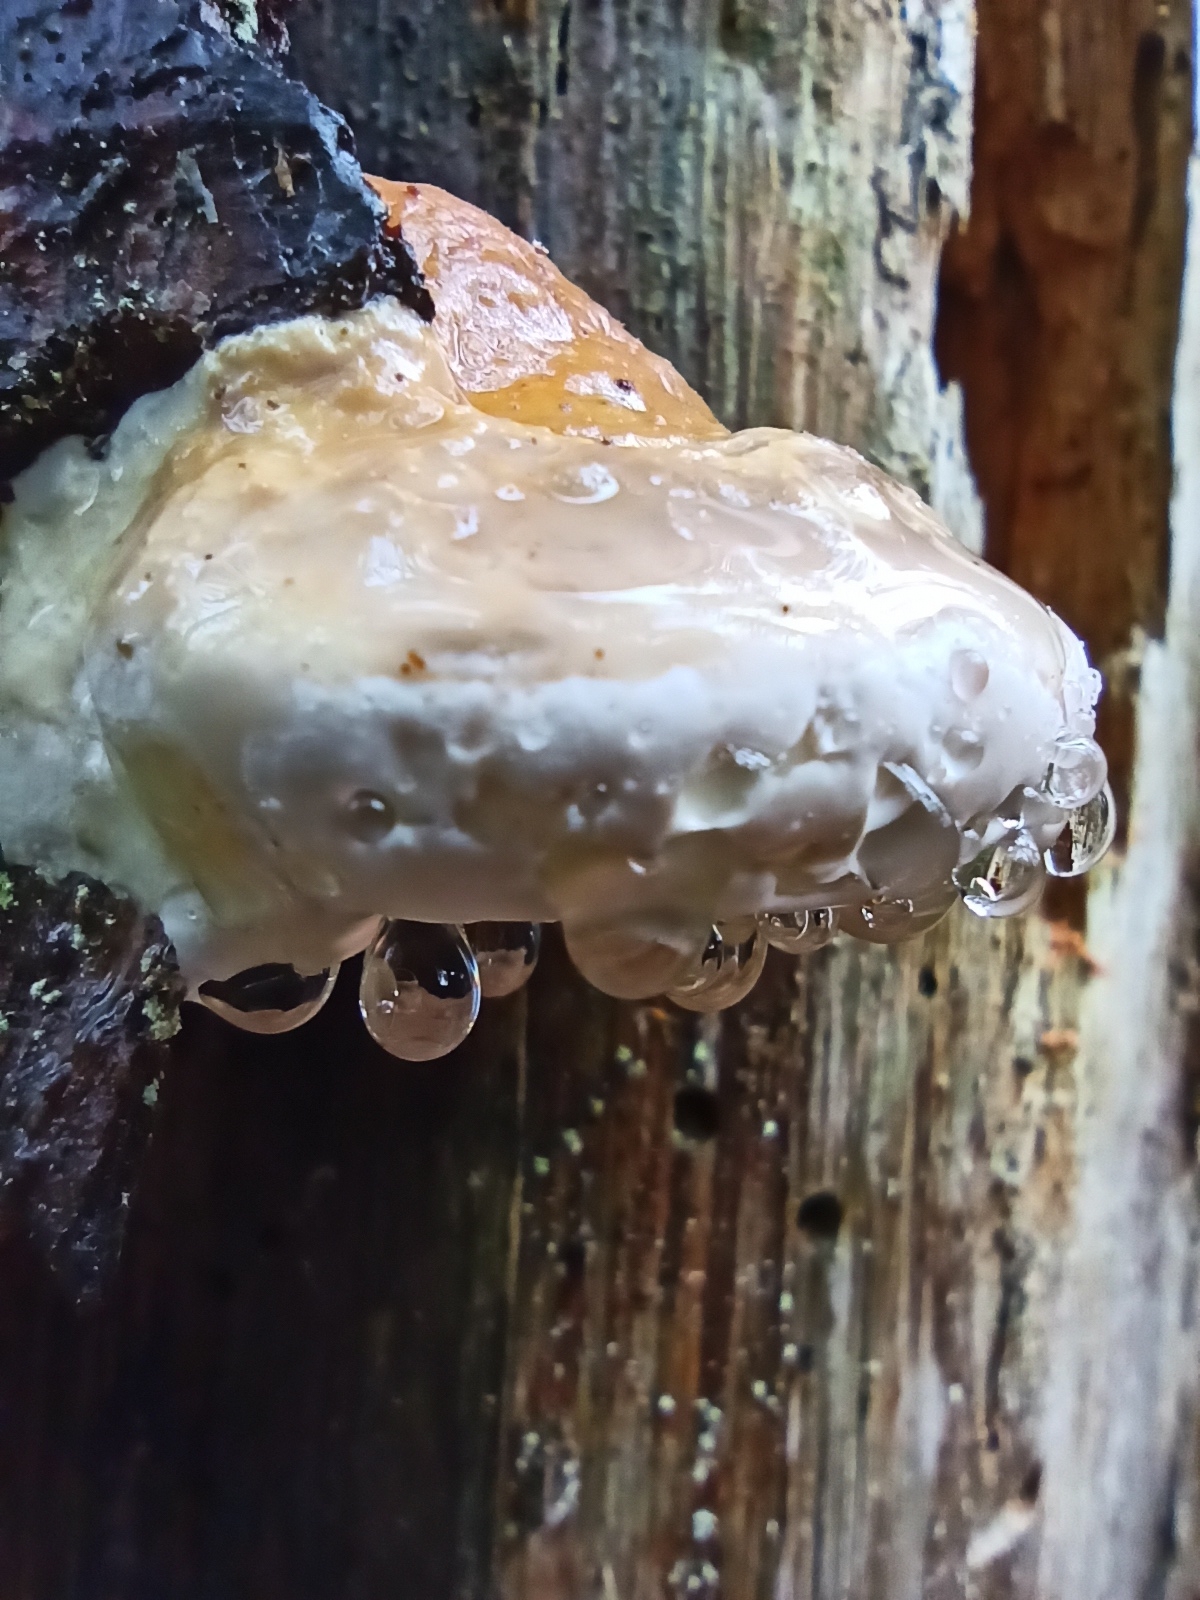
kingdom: Fungi
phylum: Basidiomycota
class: Agaricomycetes
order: Polyporales
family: Fomitopsidaceae
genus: Fomitopsis
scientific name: Fomitopsis pinicola
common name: Red-belted bracket
